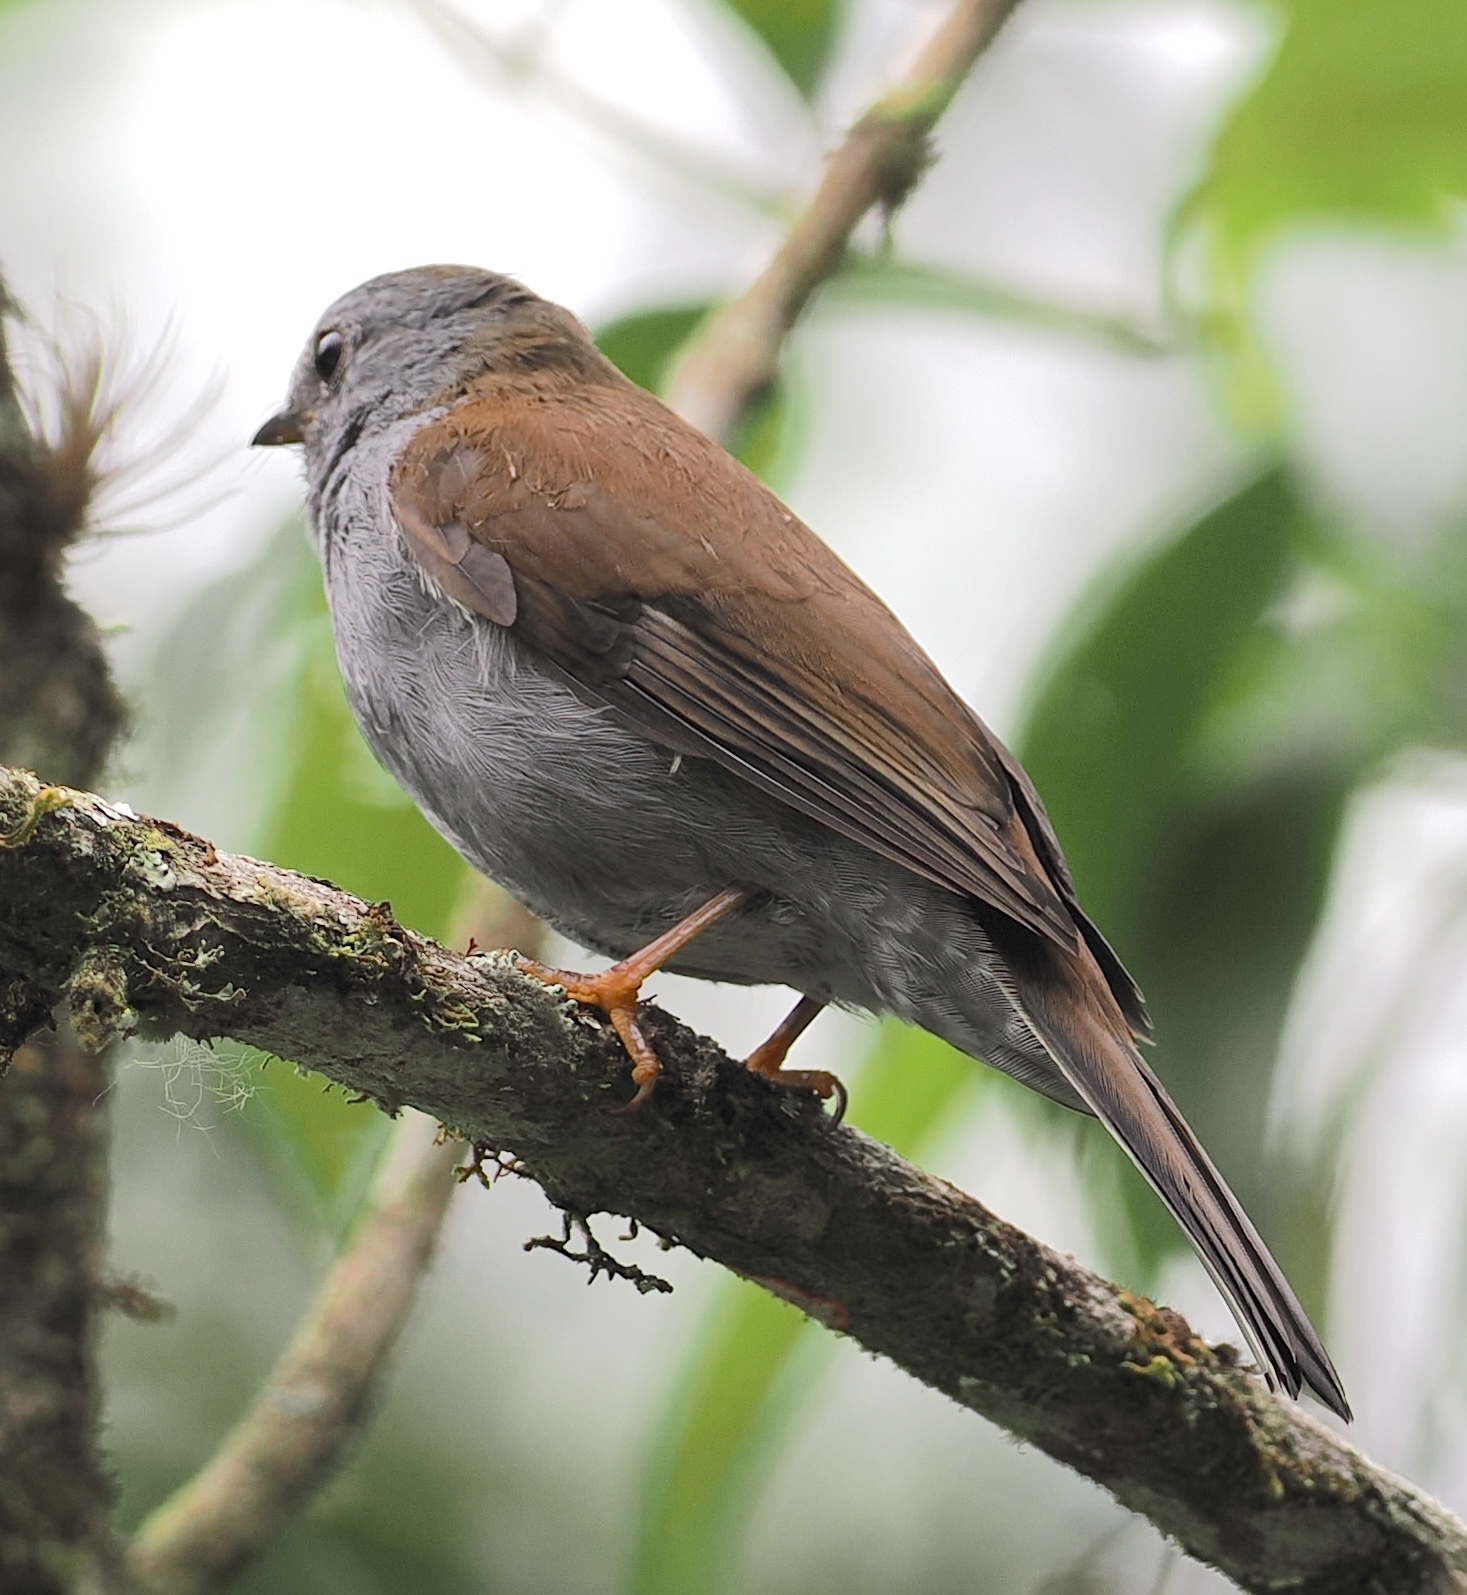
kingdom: Animalia
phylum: Chordata
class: Aves
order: Passeriformes
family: Turdidae
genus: Myadestes
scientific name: Myadestes ralloides
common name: Andean solitaire
